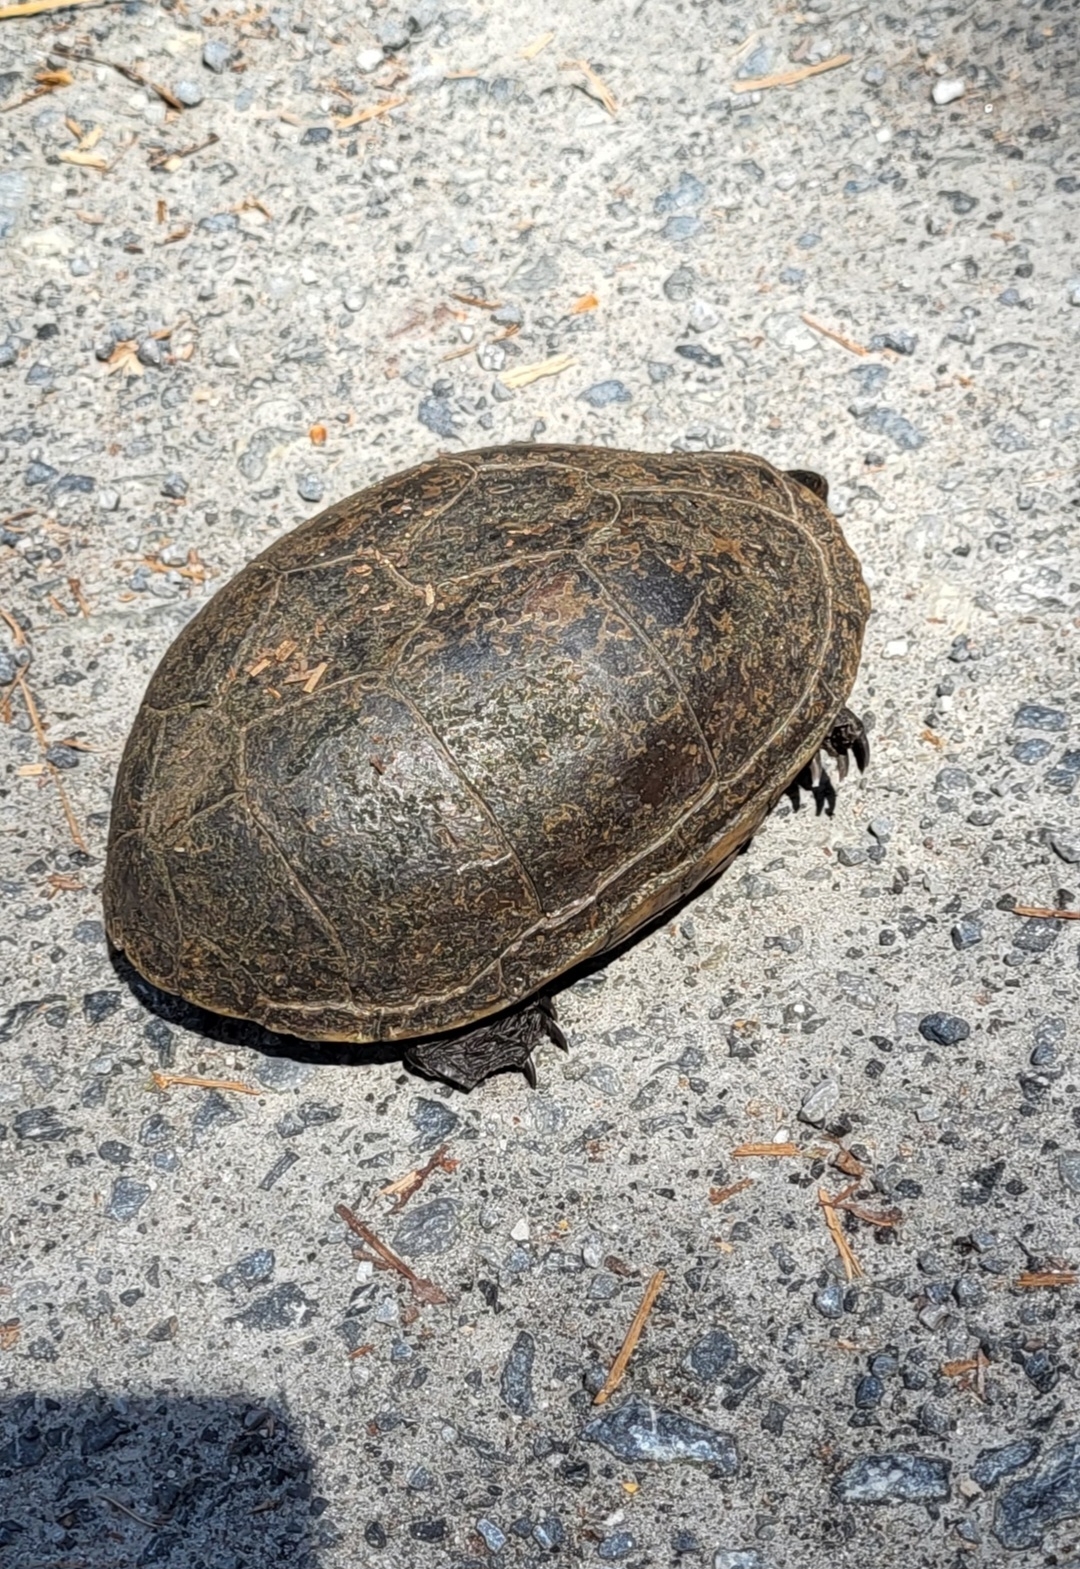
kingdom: Animalia
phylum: Chordata
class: Testudines
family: Kinosternidae
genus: Kinosternon
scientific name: Kinosternon subrubrum
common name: Eastern mud turtle
